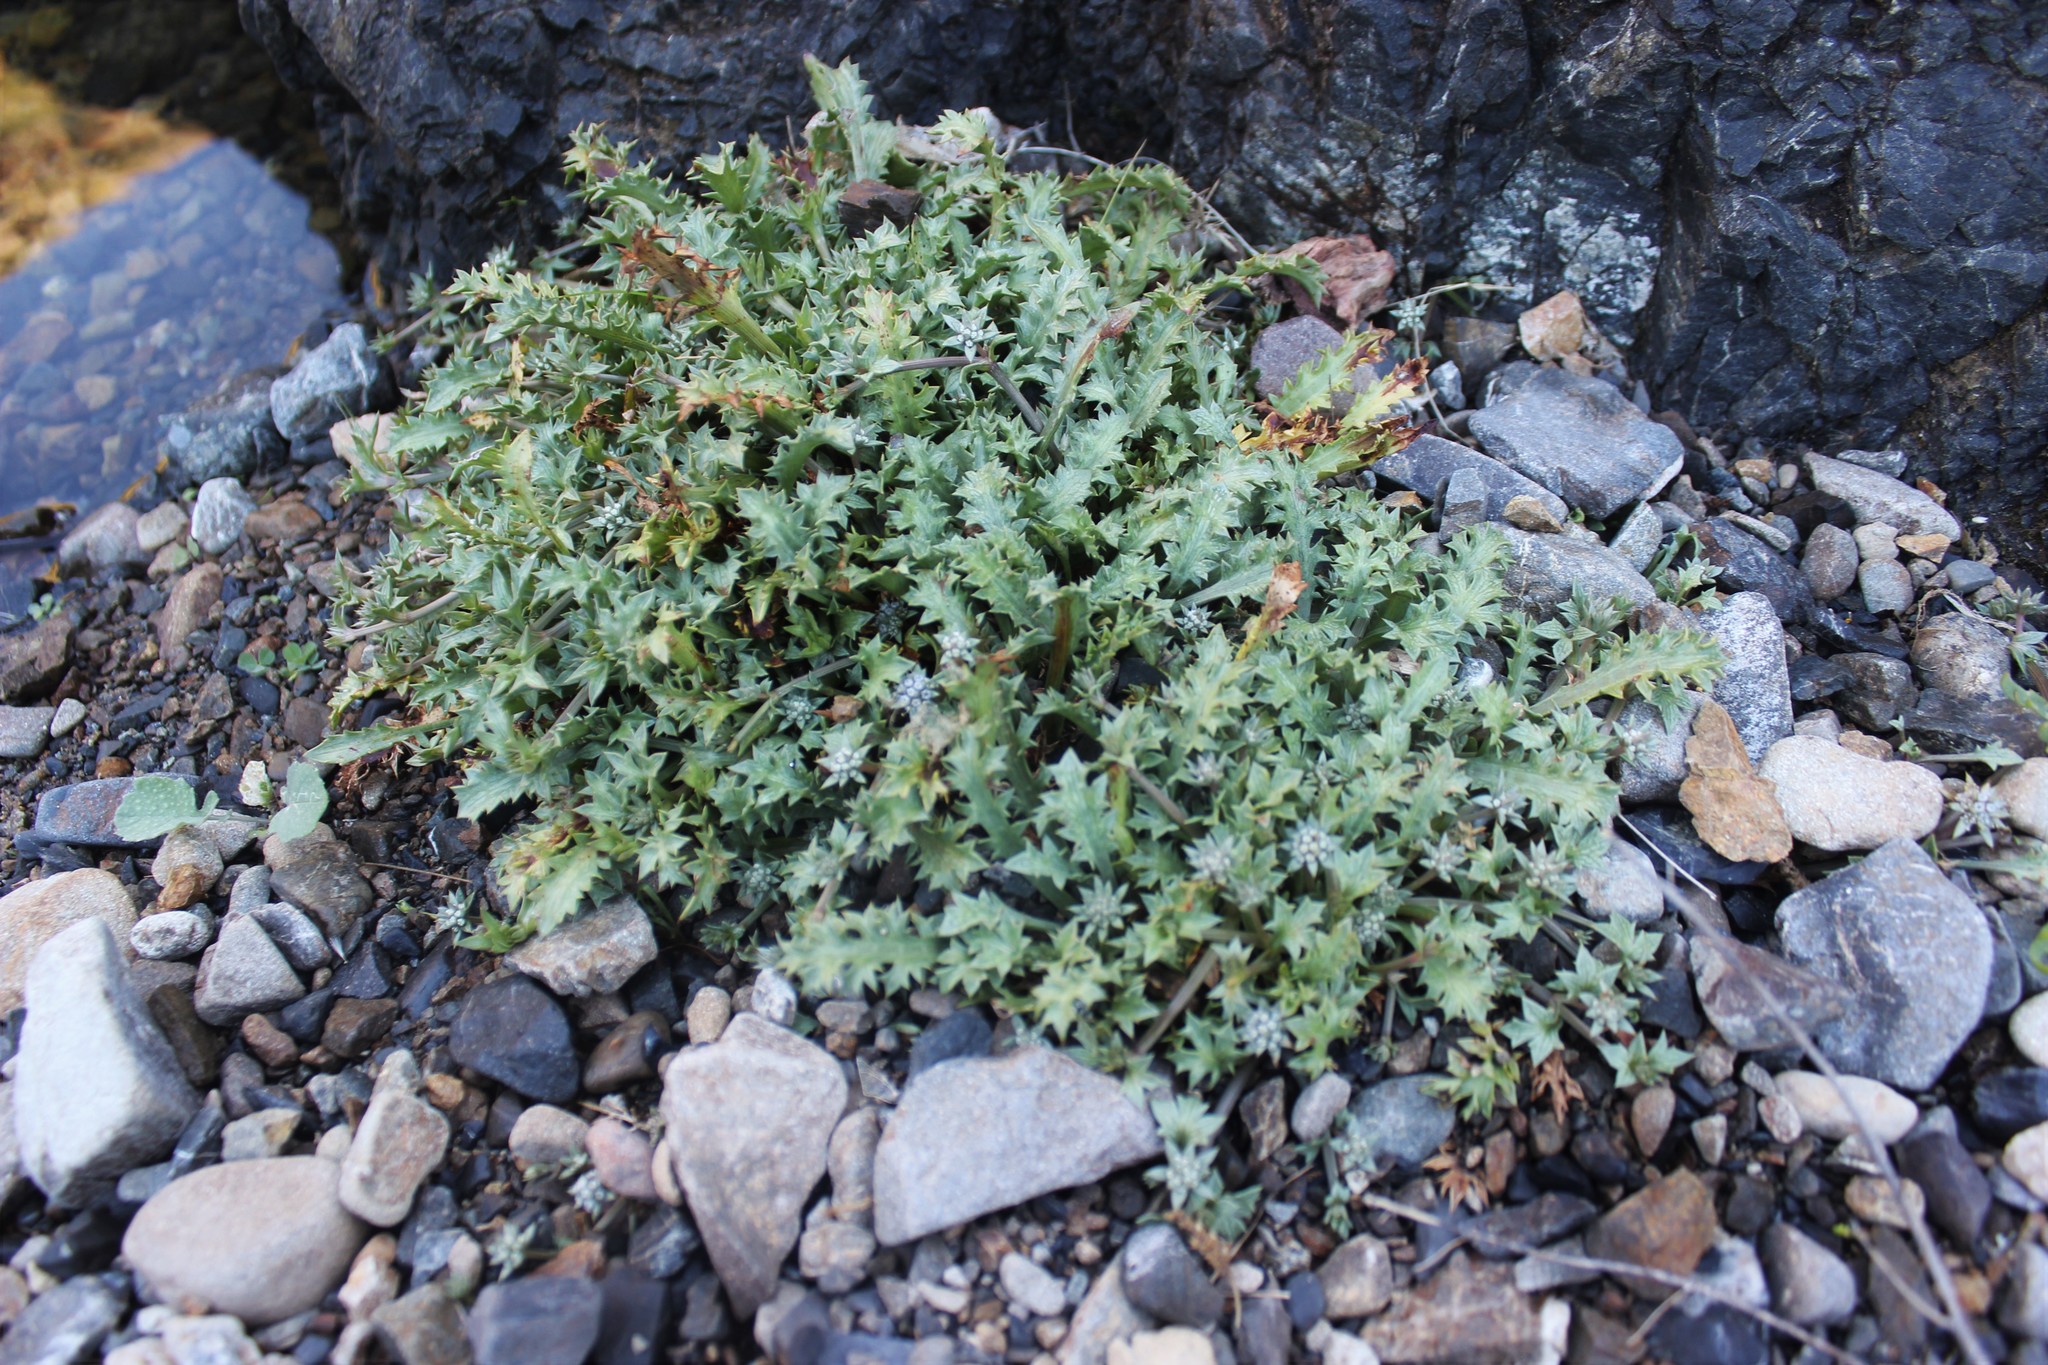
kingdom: Plantae
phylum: Tracheophyta
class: Magnoliopsida
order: Apiales
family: Apiaceae
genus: Eryngium
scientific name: Eryngium vesiculosum
